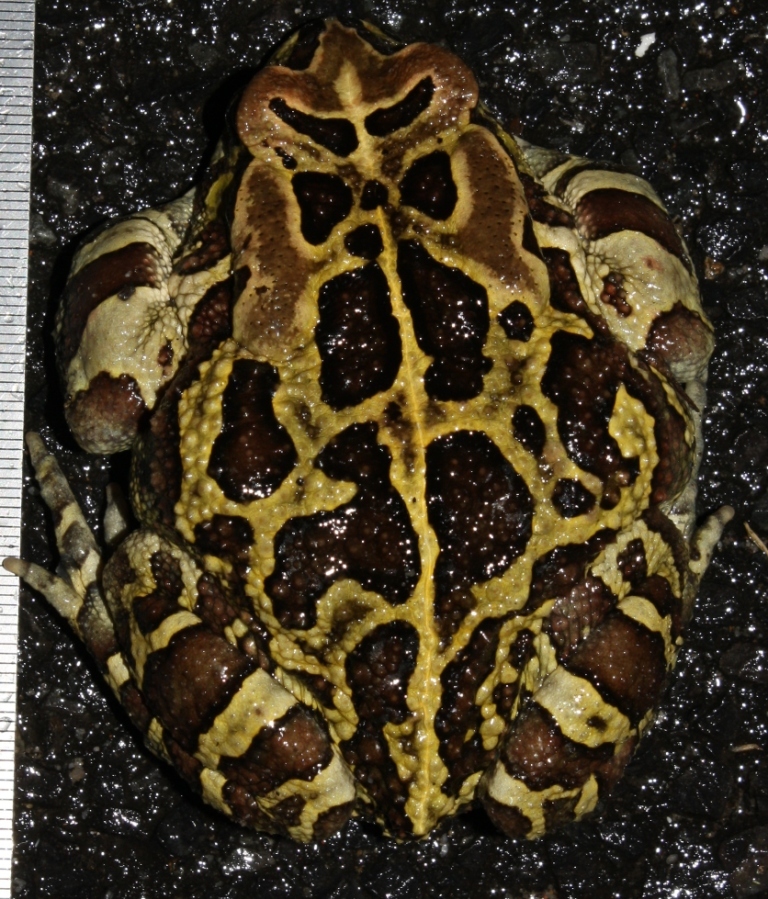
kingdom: Animalia
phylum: Chordata
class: Amphibia
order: Anura
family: Bufonidae
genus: Sclerophrys
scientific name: Sclerophrys pantherina
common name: Panther toad
